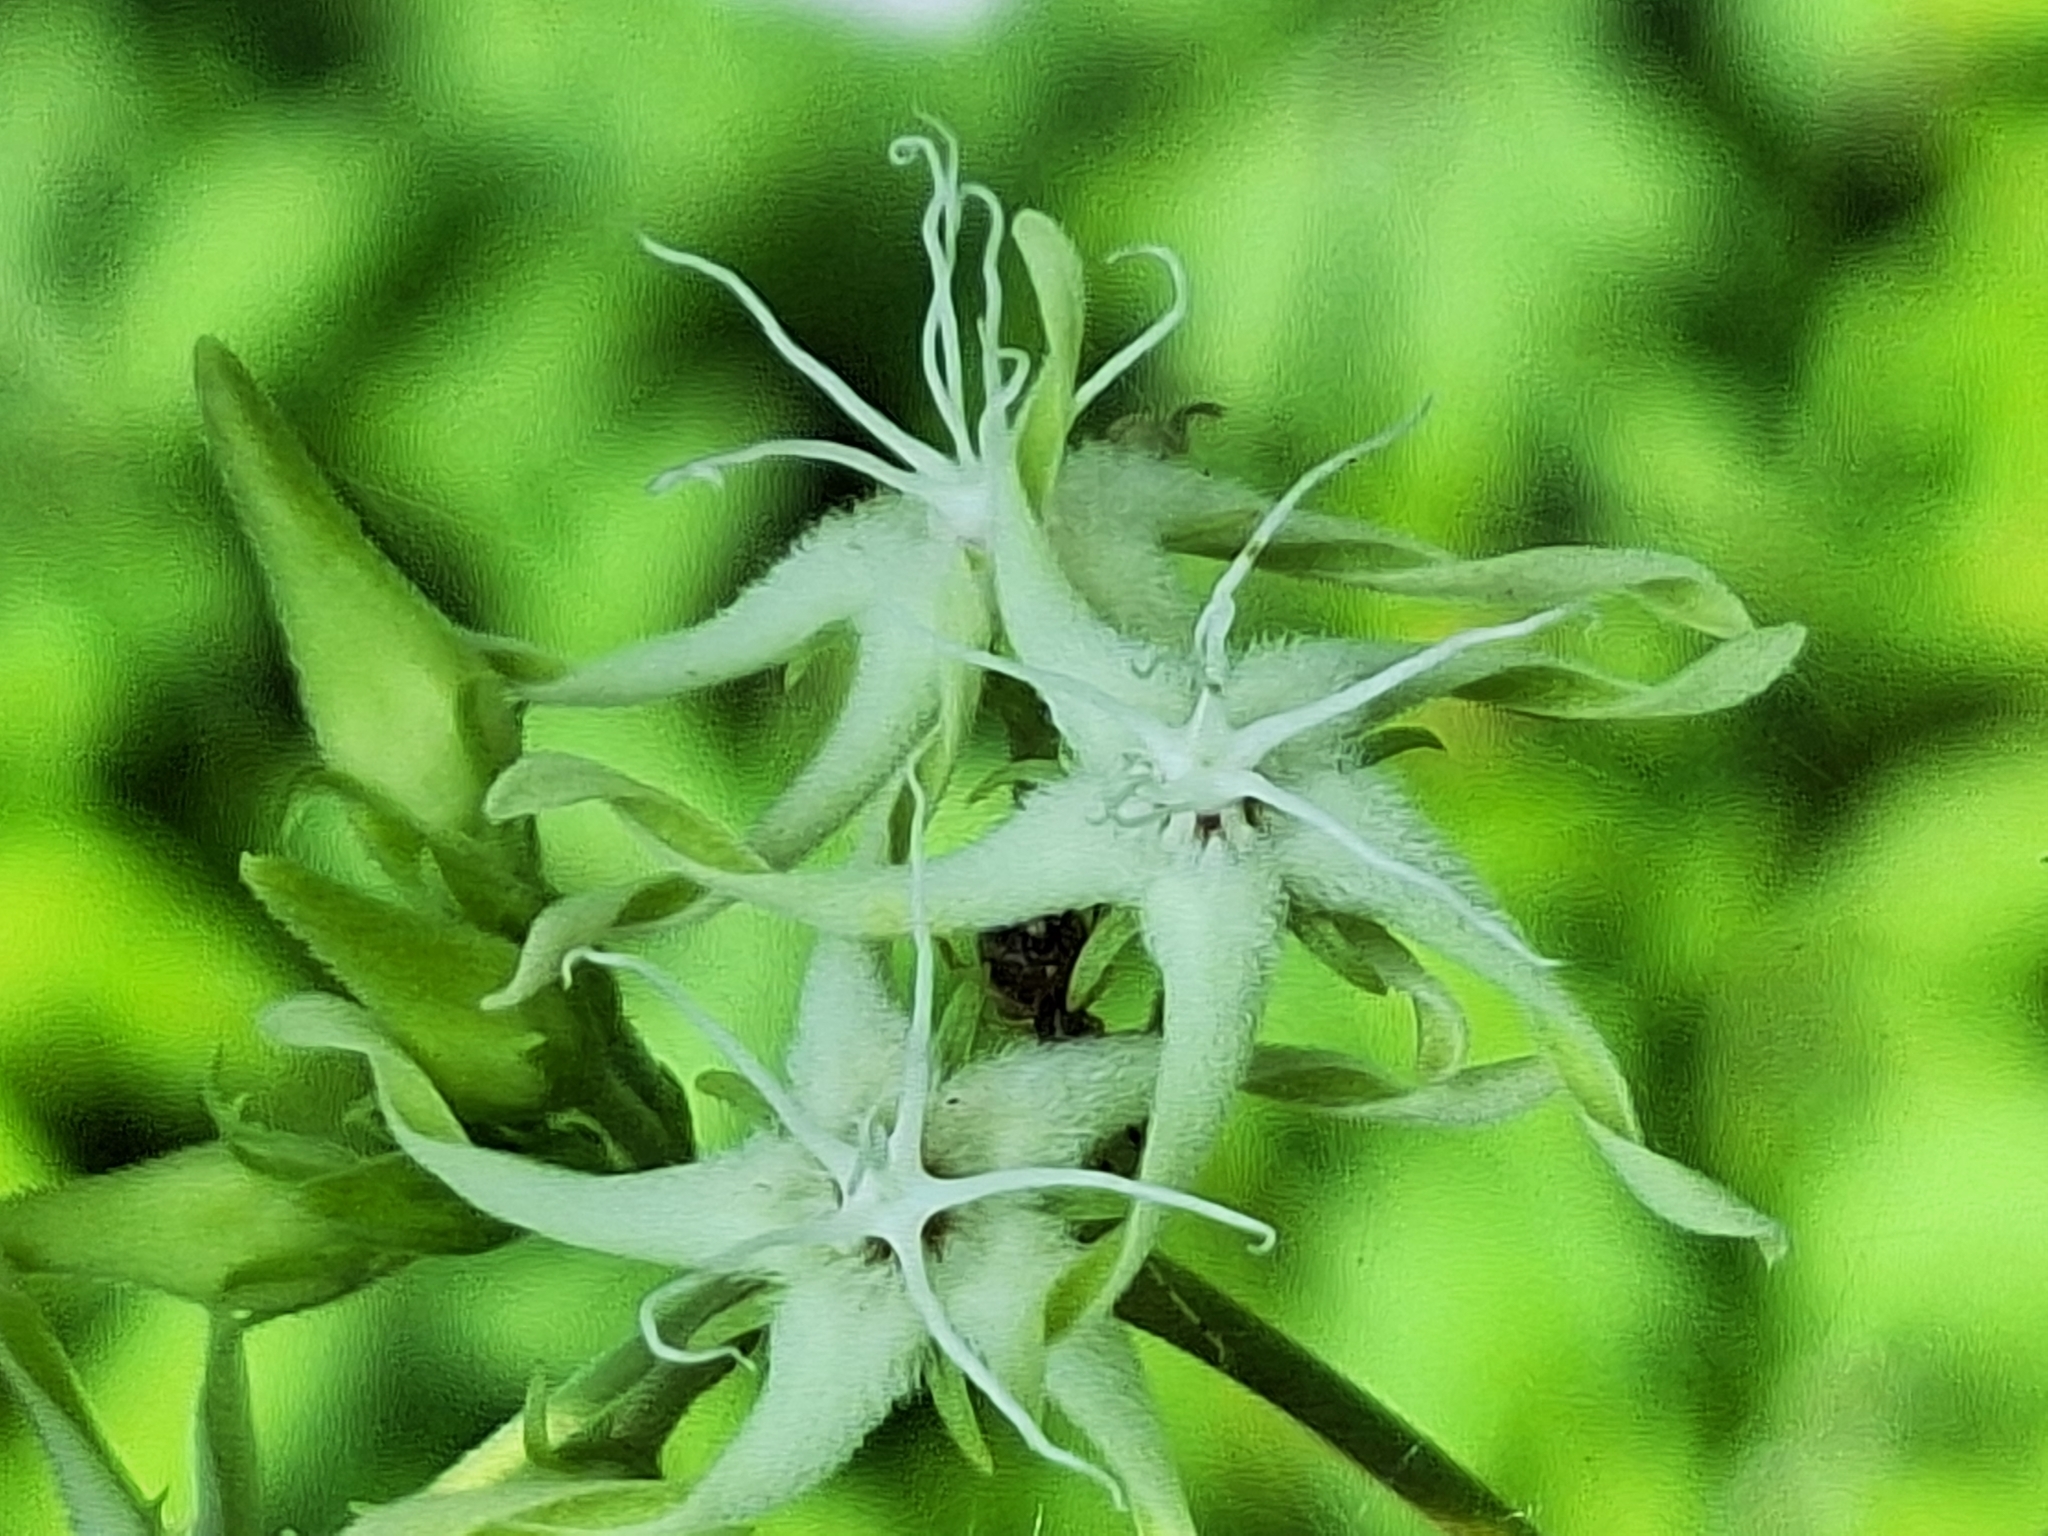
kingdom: Plantae
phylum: Tracheophyta
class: Magnoliopsida
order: Gentianales
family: Apocynaceae
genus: Oxypetalum
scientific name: Oxypetalum sylvestre
